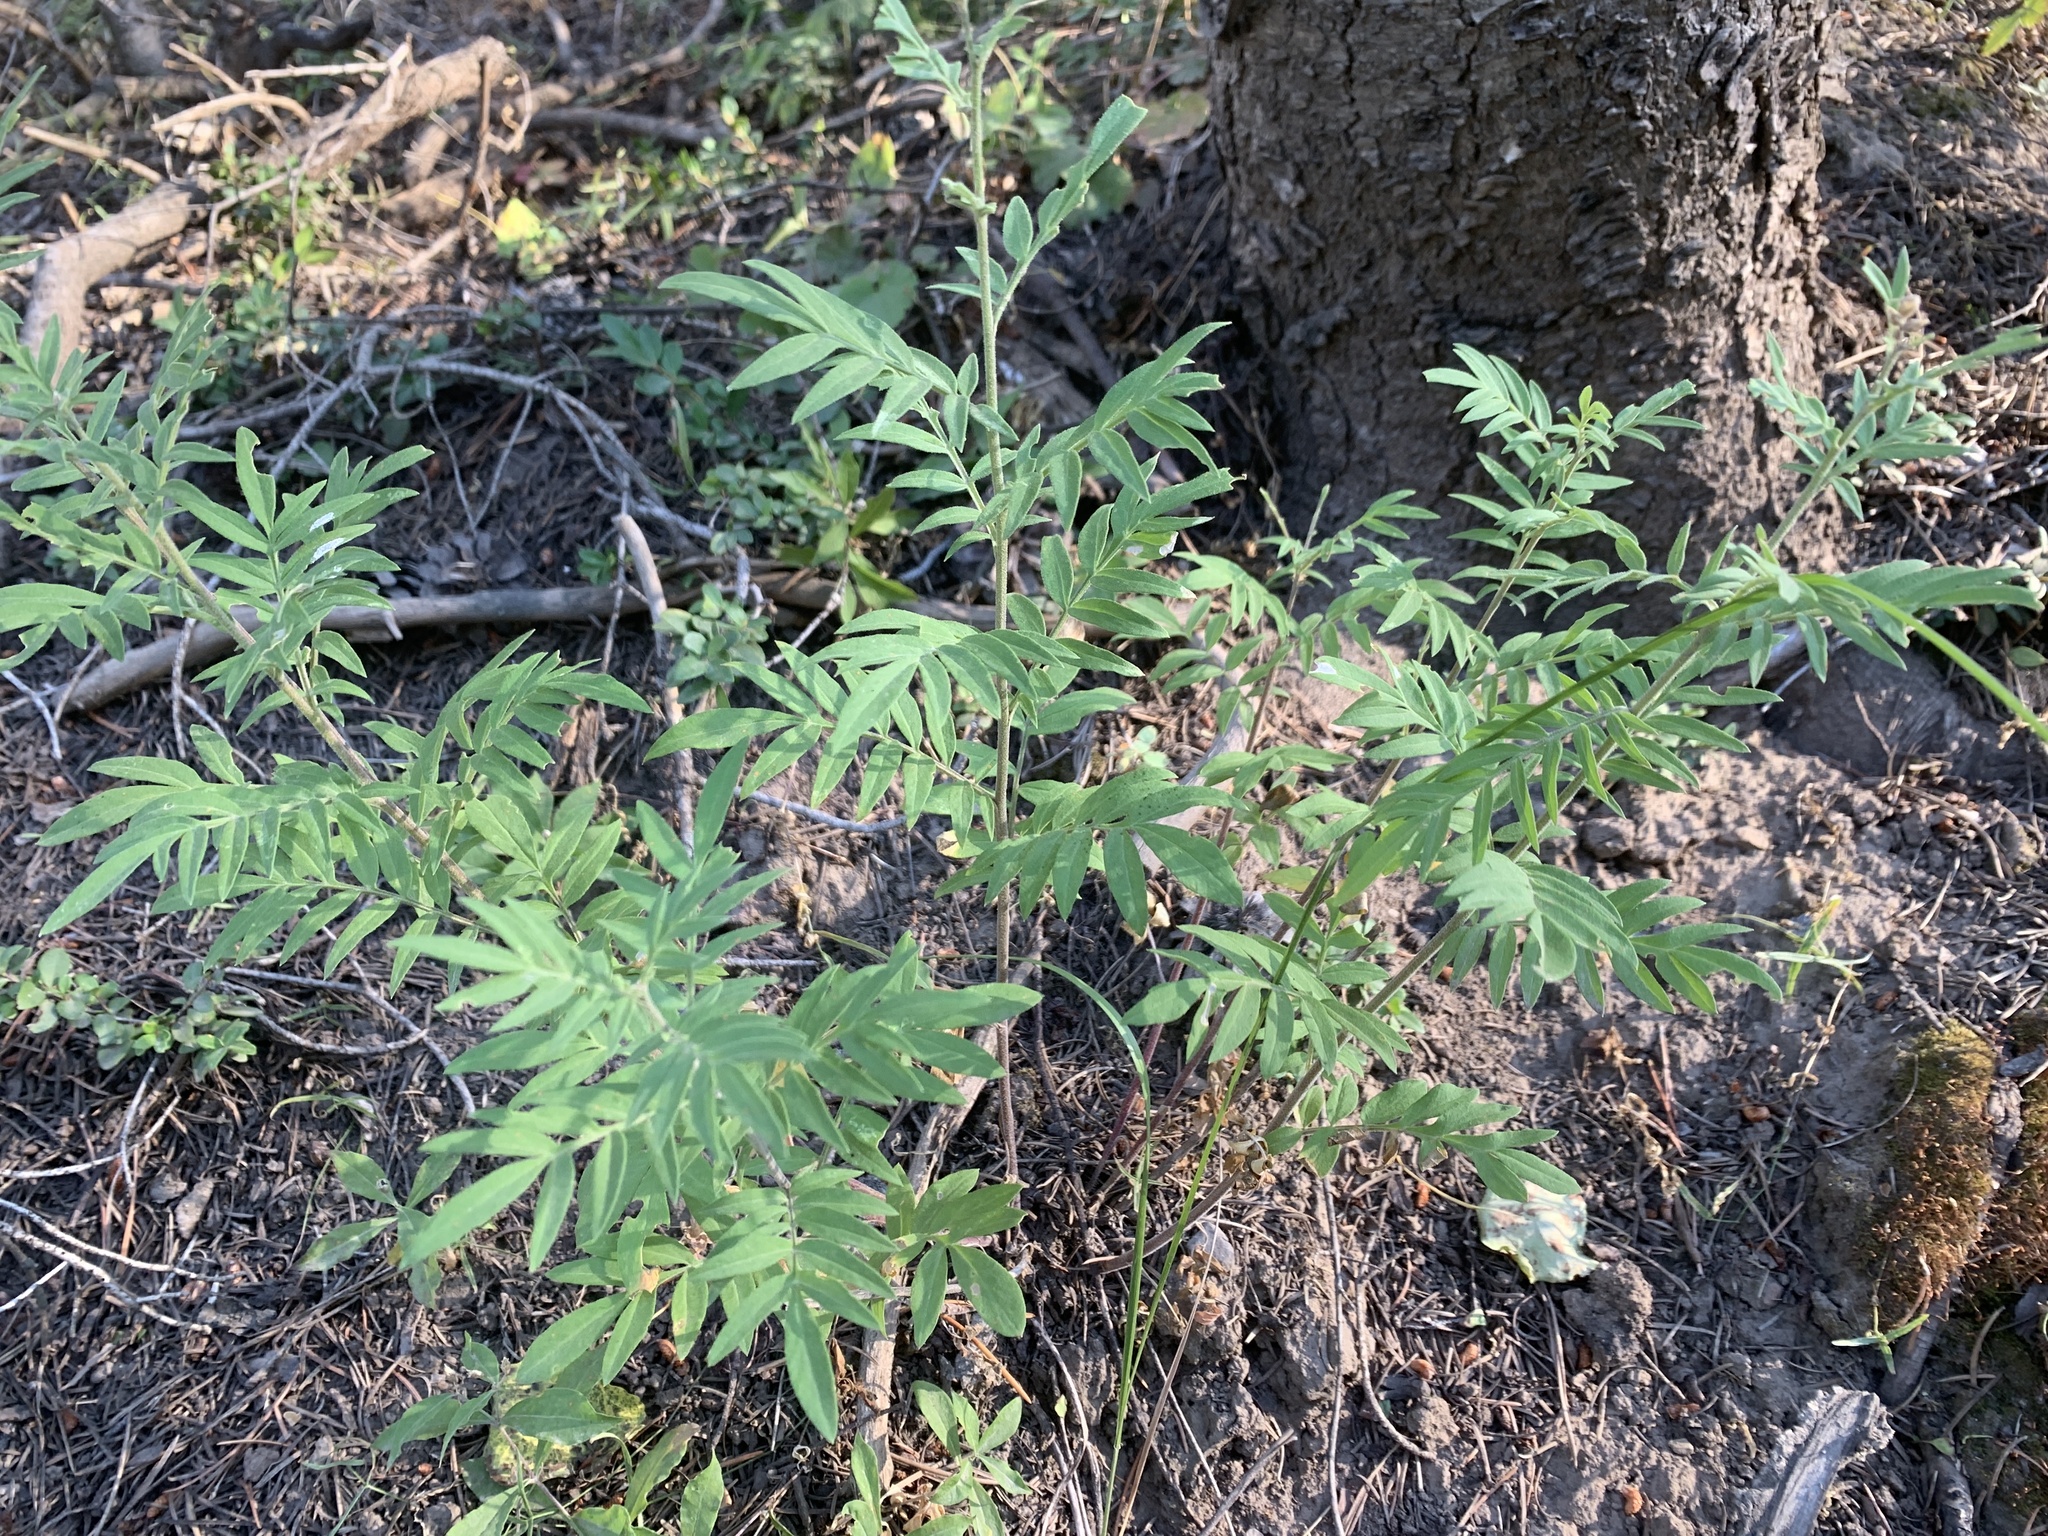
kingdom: Plantae
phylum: Tracheophyta
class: Magnoliopsida
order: Ericales
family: Polemoniaceae
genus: Polemonium
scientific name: Polemonium foliosissimum
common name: Leafy jacob's-ladder
